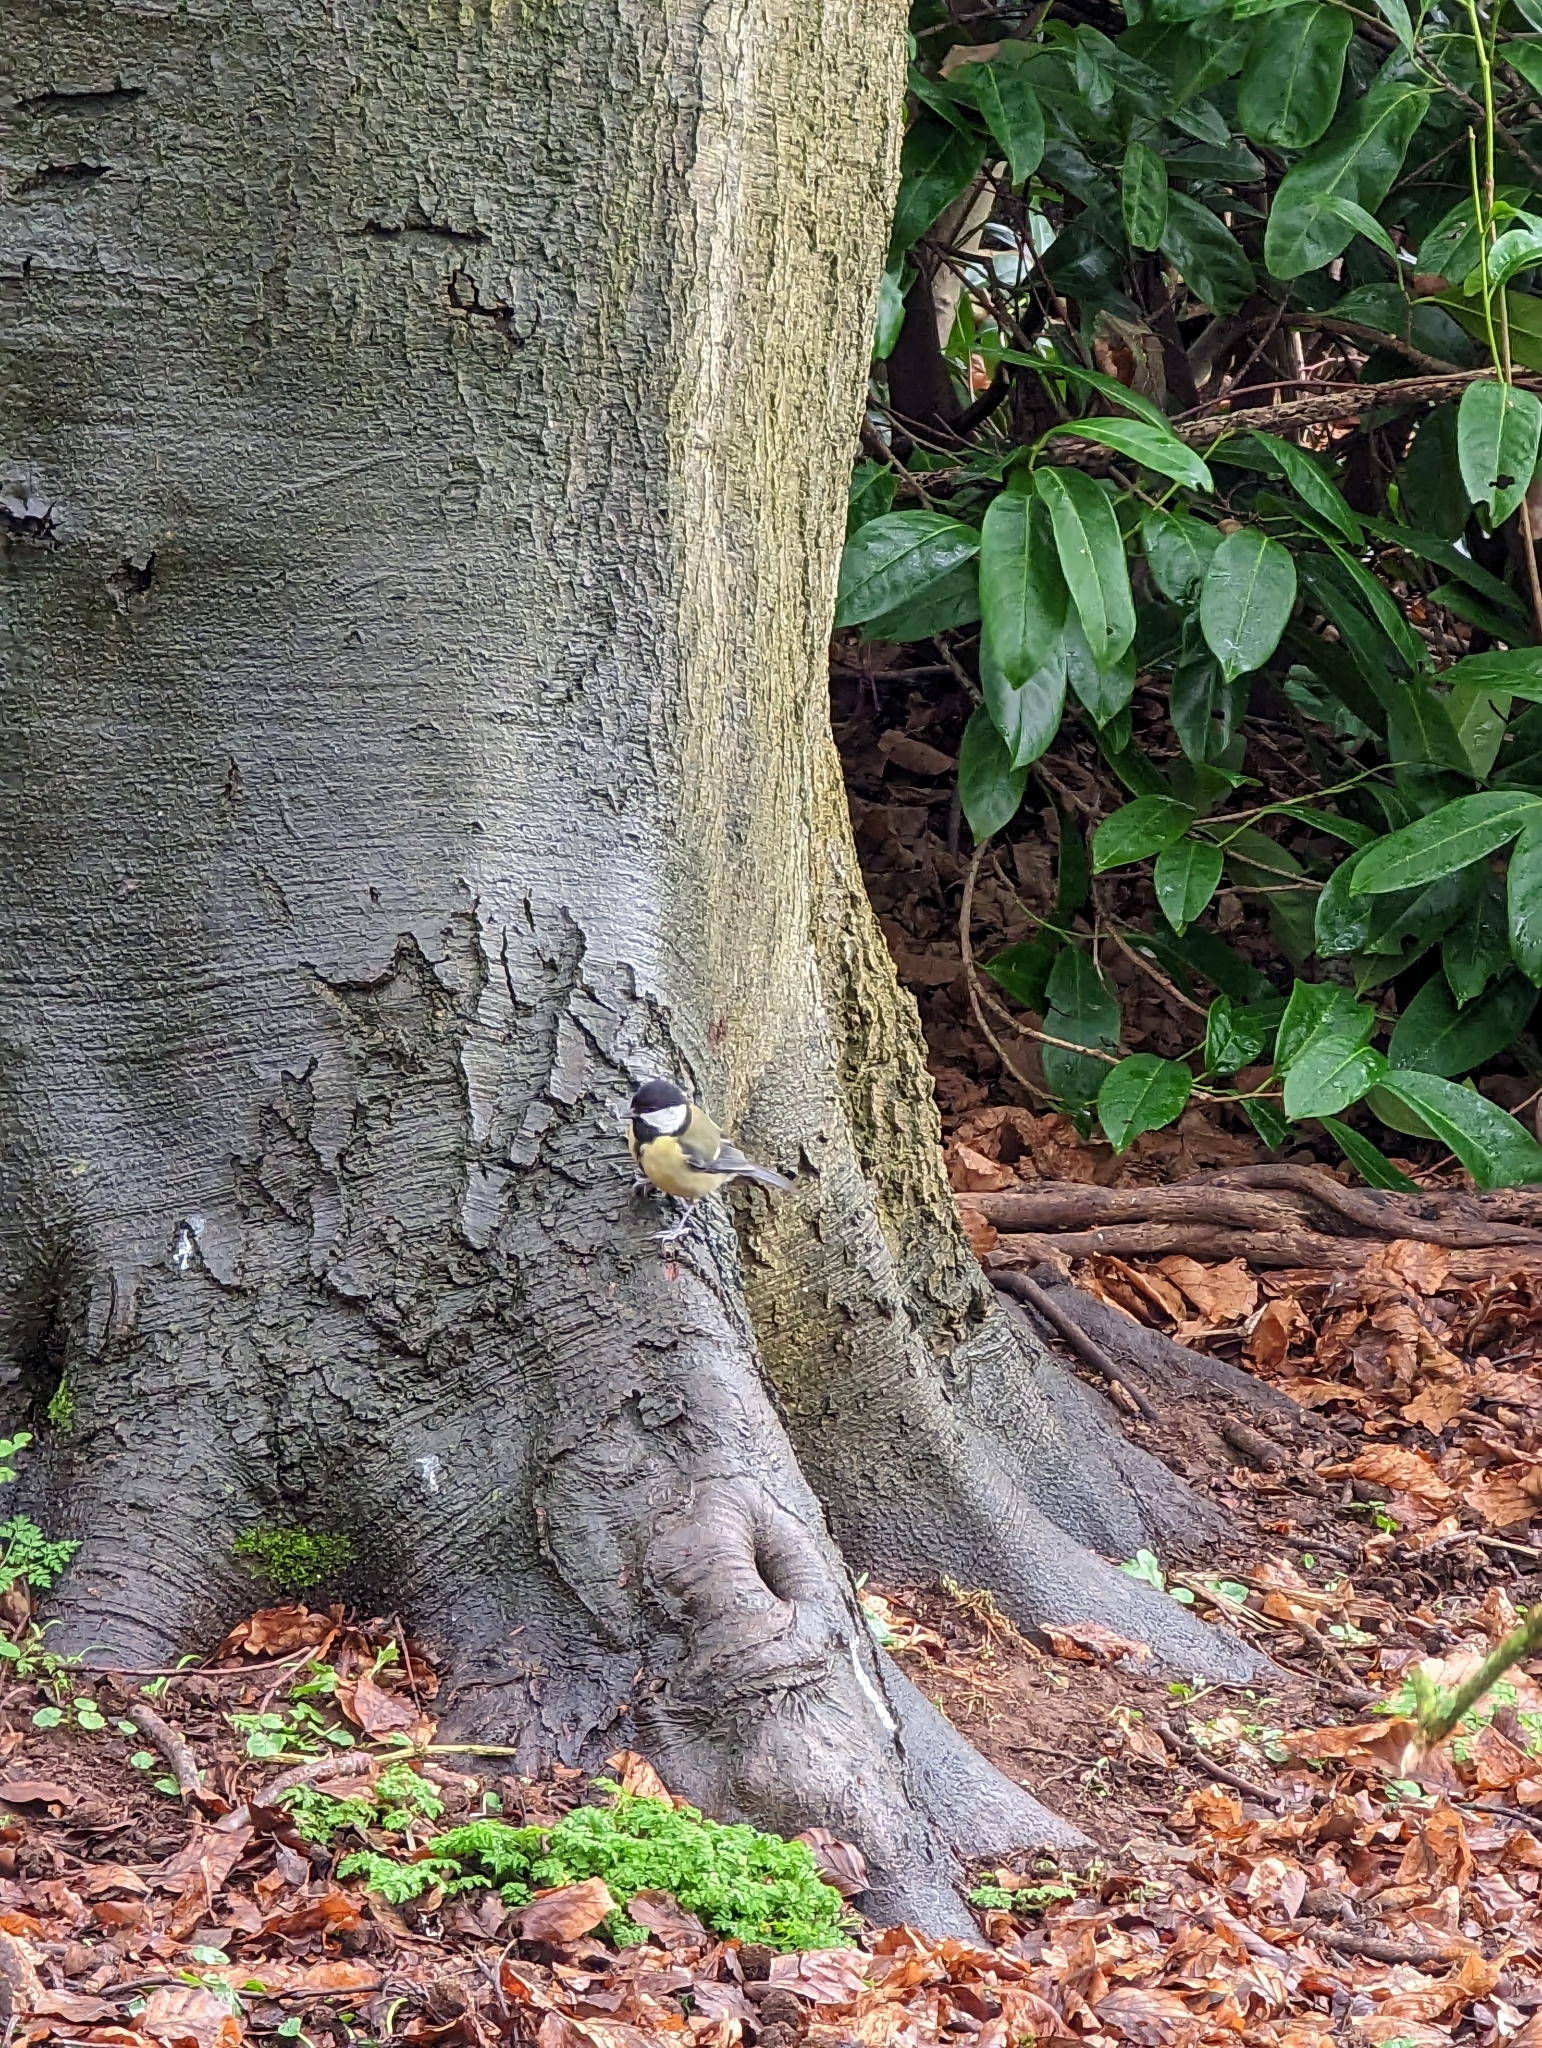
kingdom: Animalia
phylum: Chordata
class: Aves
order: Passeriformes
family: Paridae
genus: Parus
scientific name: Parus major
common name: Great tit
